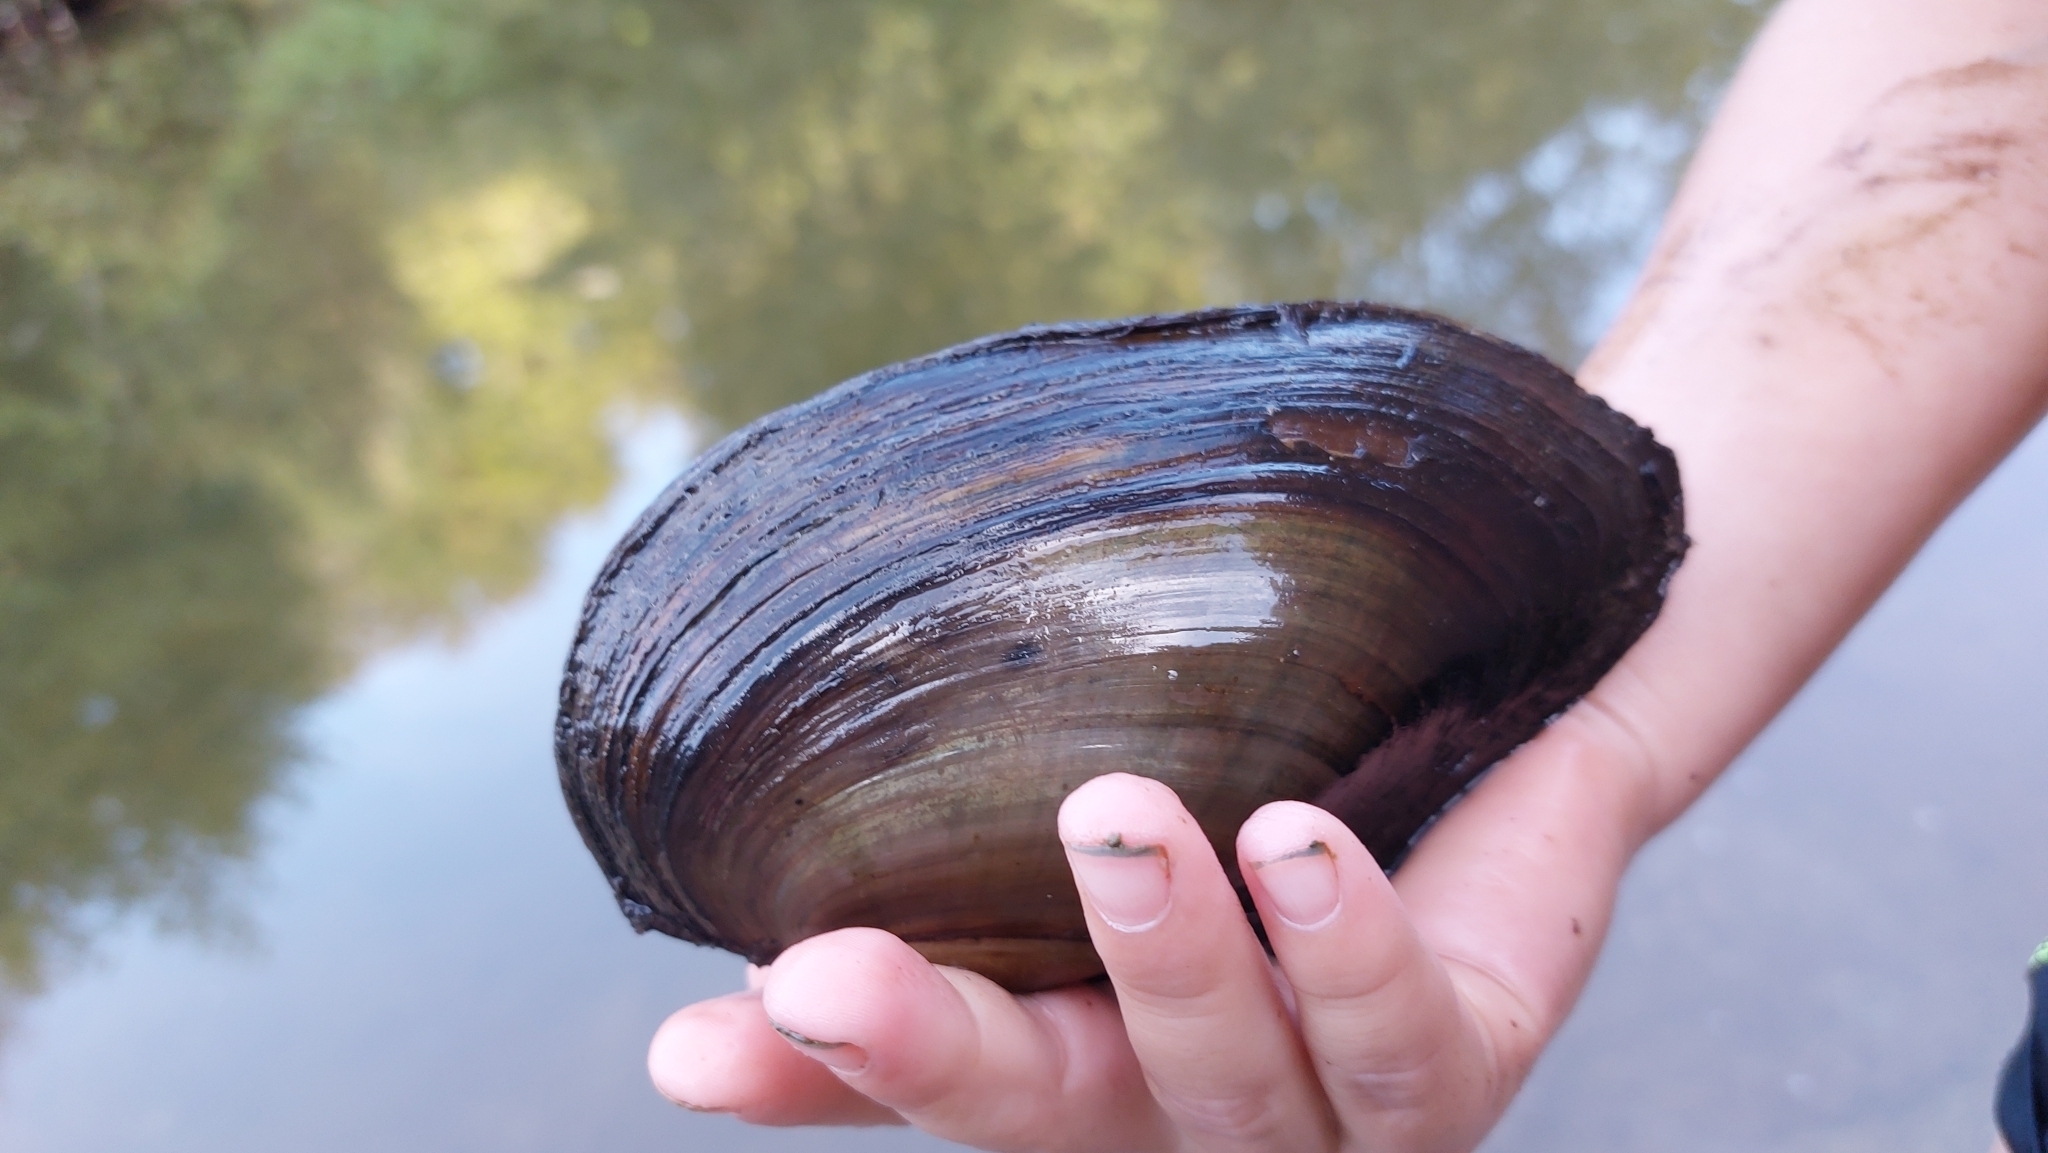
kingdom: Animalia
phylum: Mollusca
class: Bivalvia
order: Unionida
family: Unionidae
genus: Anodonta
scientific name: Anodonta anatina
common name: Duck mussel
